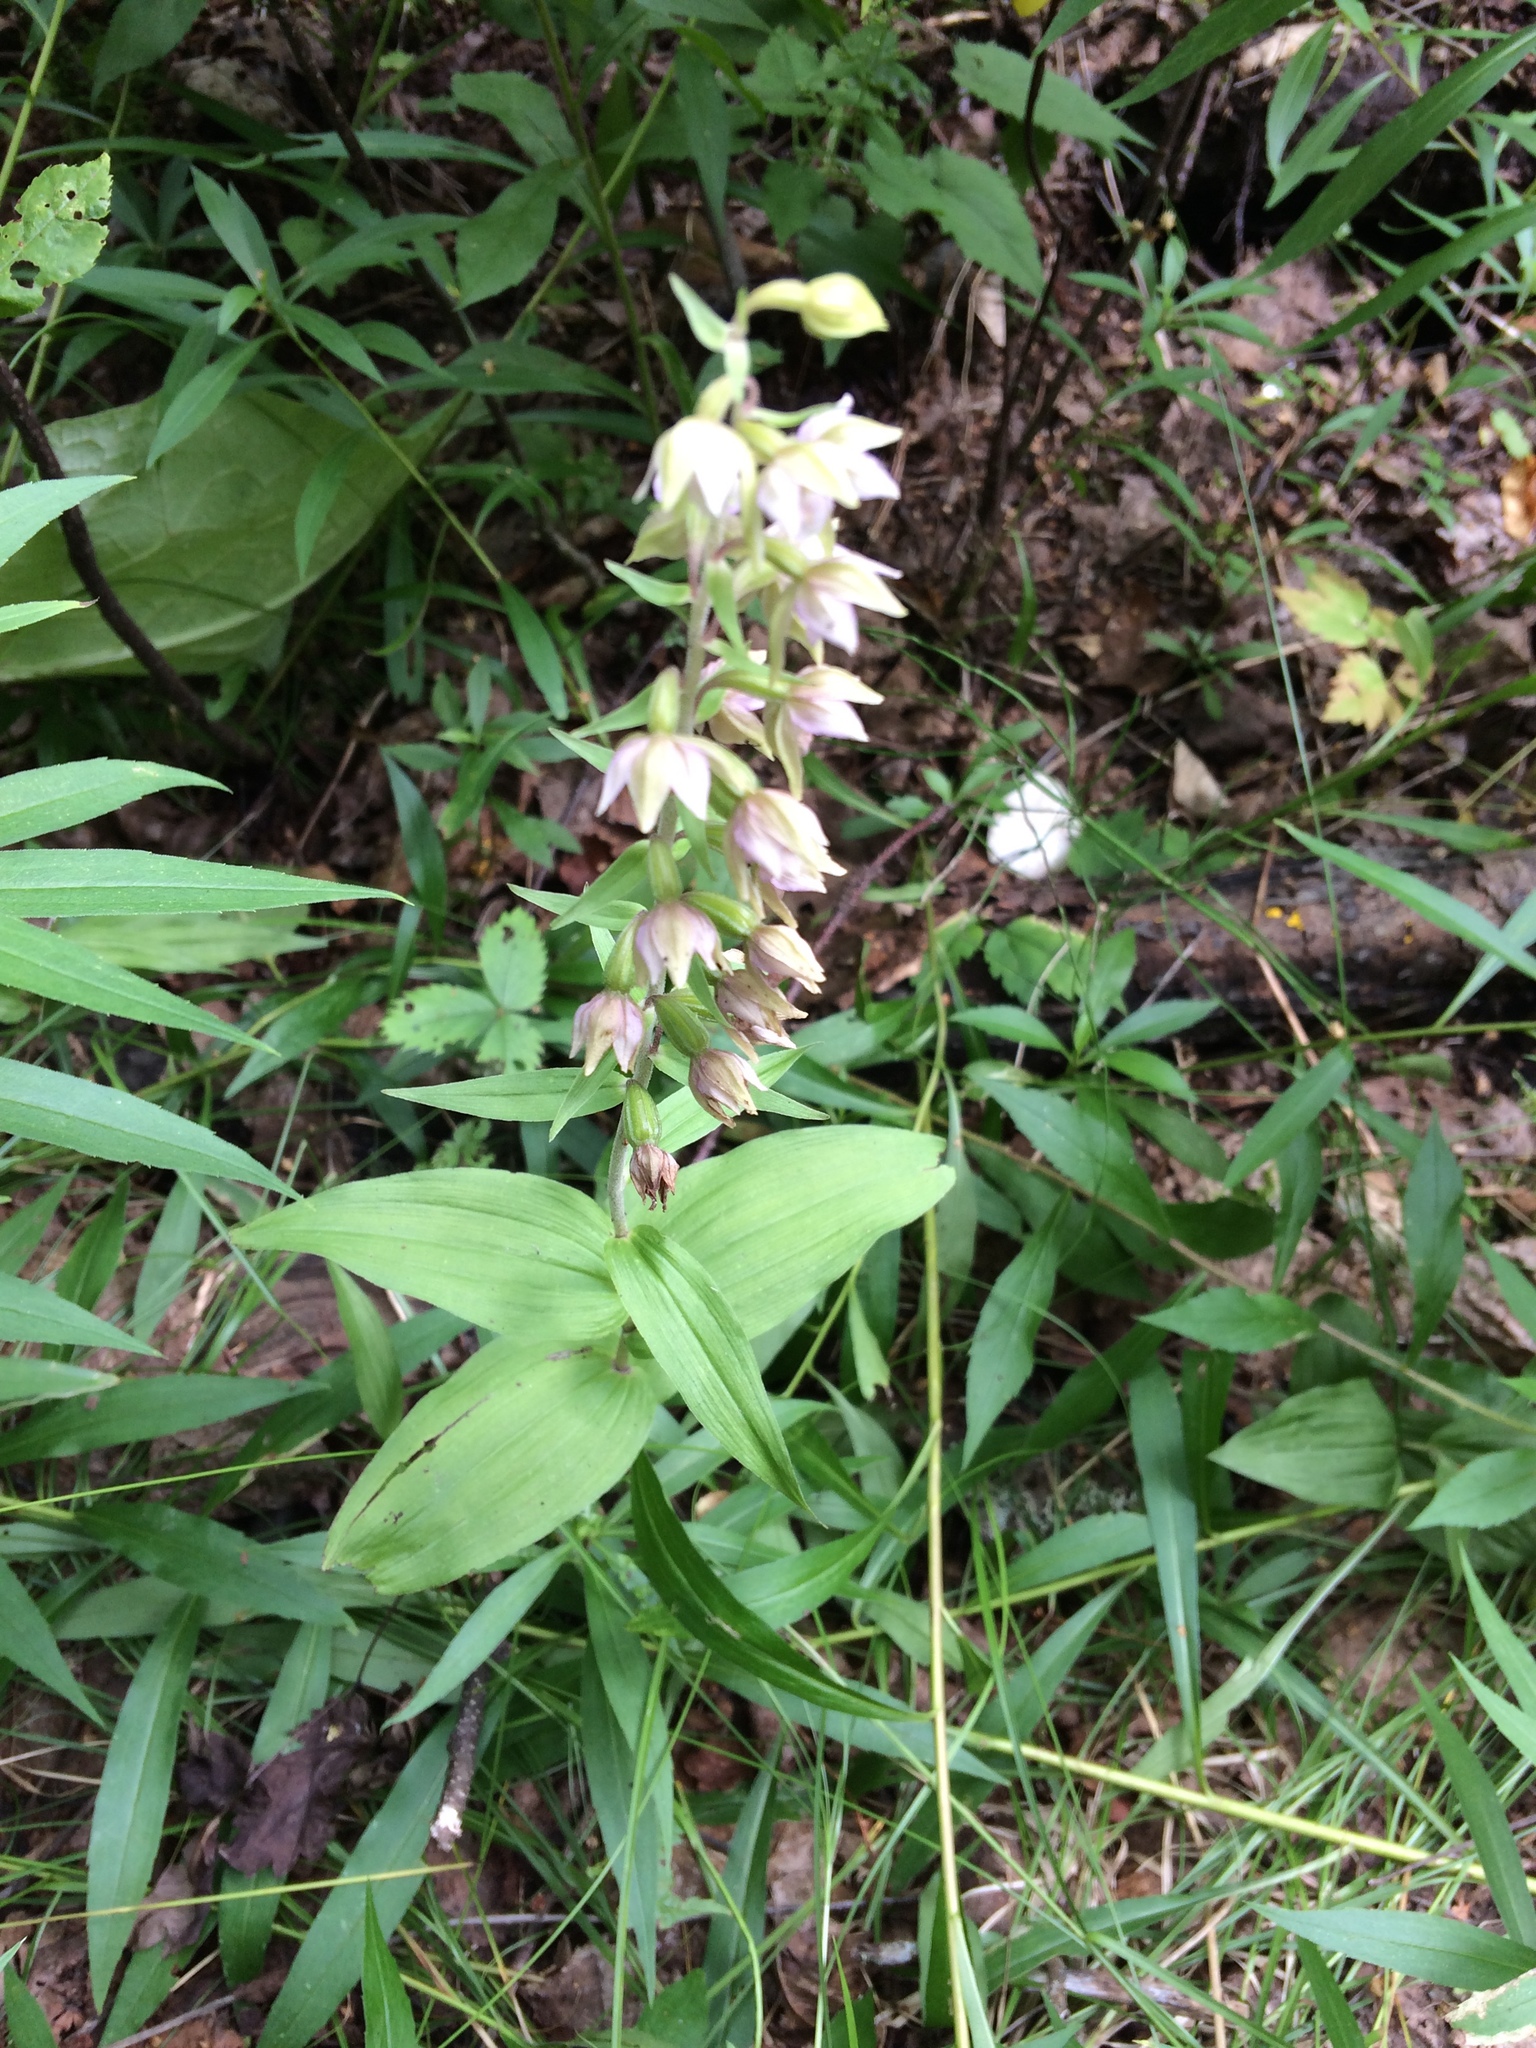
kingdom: Plantae
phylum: Tracheophyta
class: Liliopsida
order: Asparagales
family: Orchidaceae
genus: Epipactis
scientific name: Epipactis helleborine
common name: Broad-leaved helleborine
